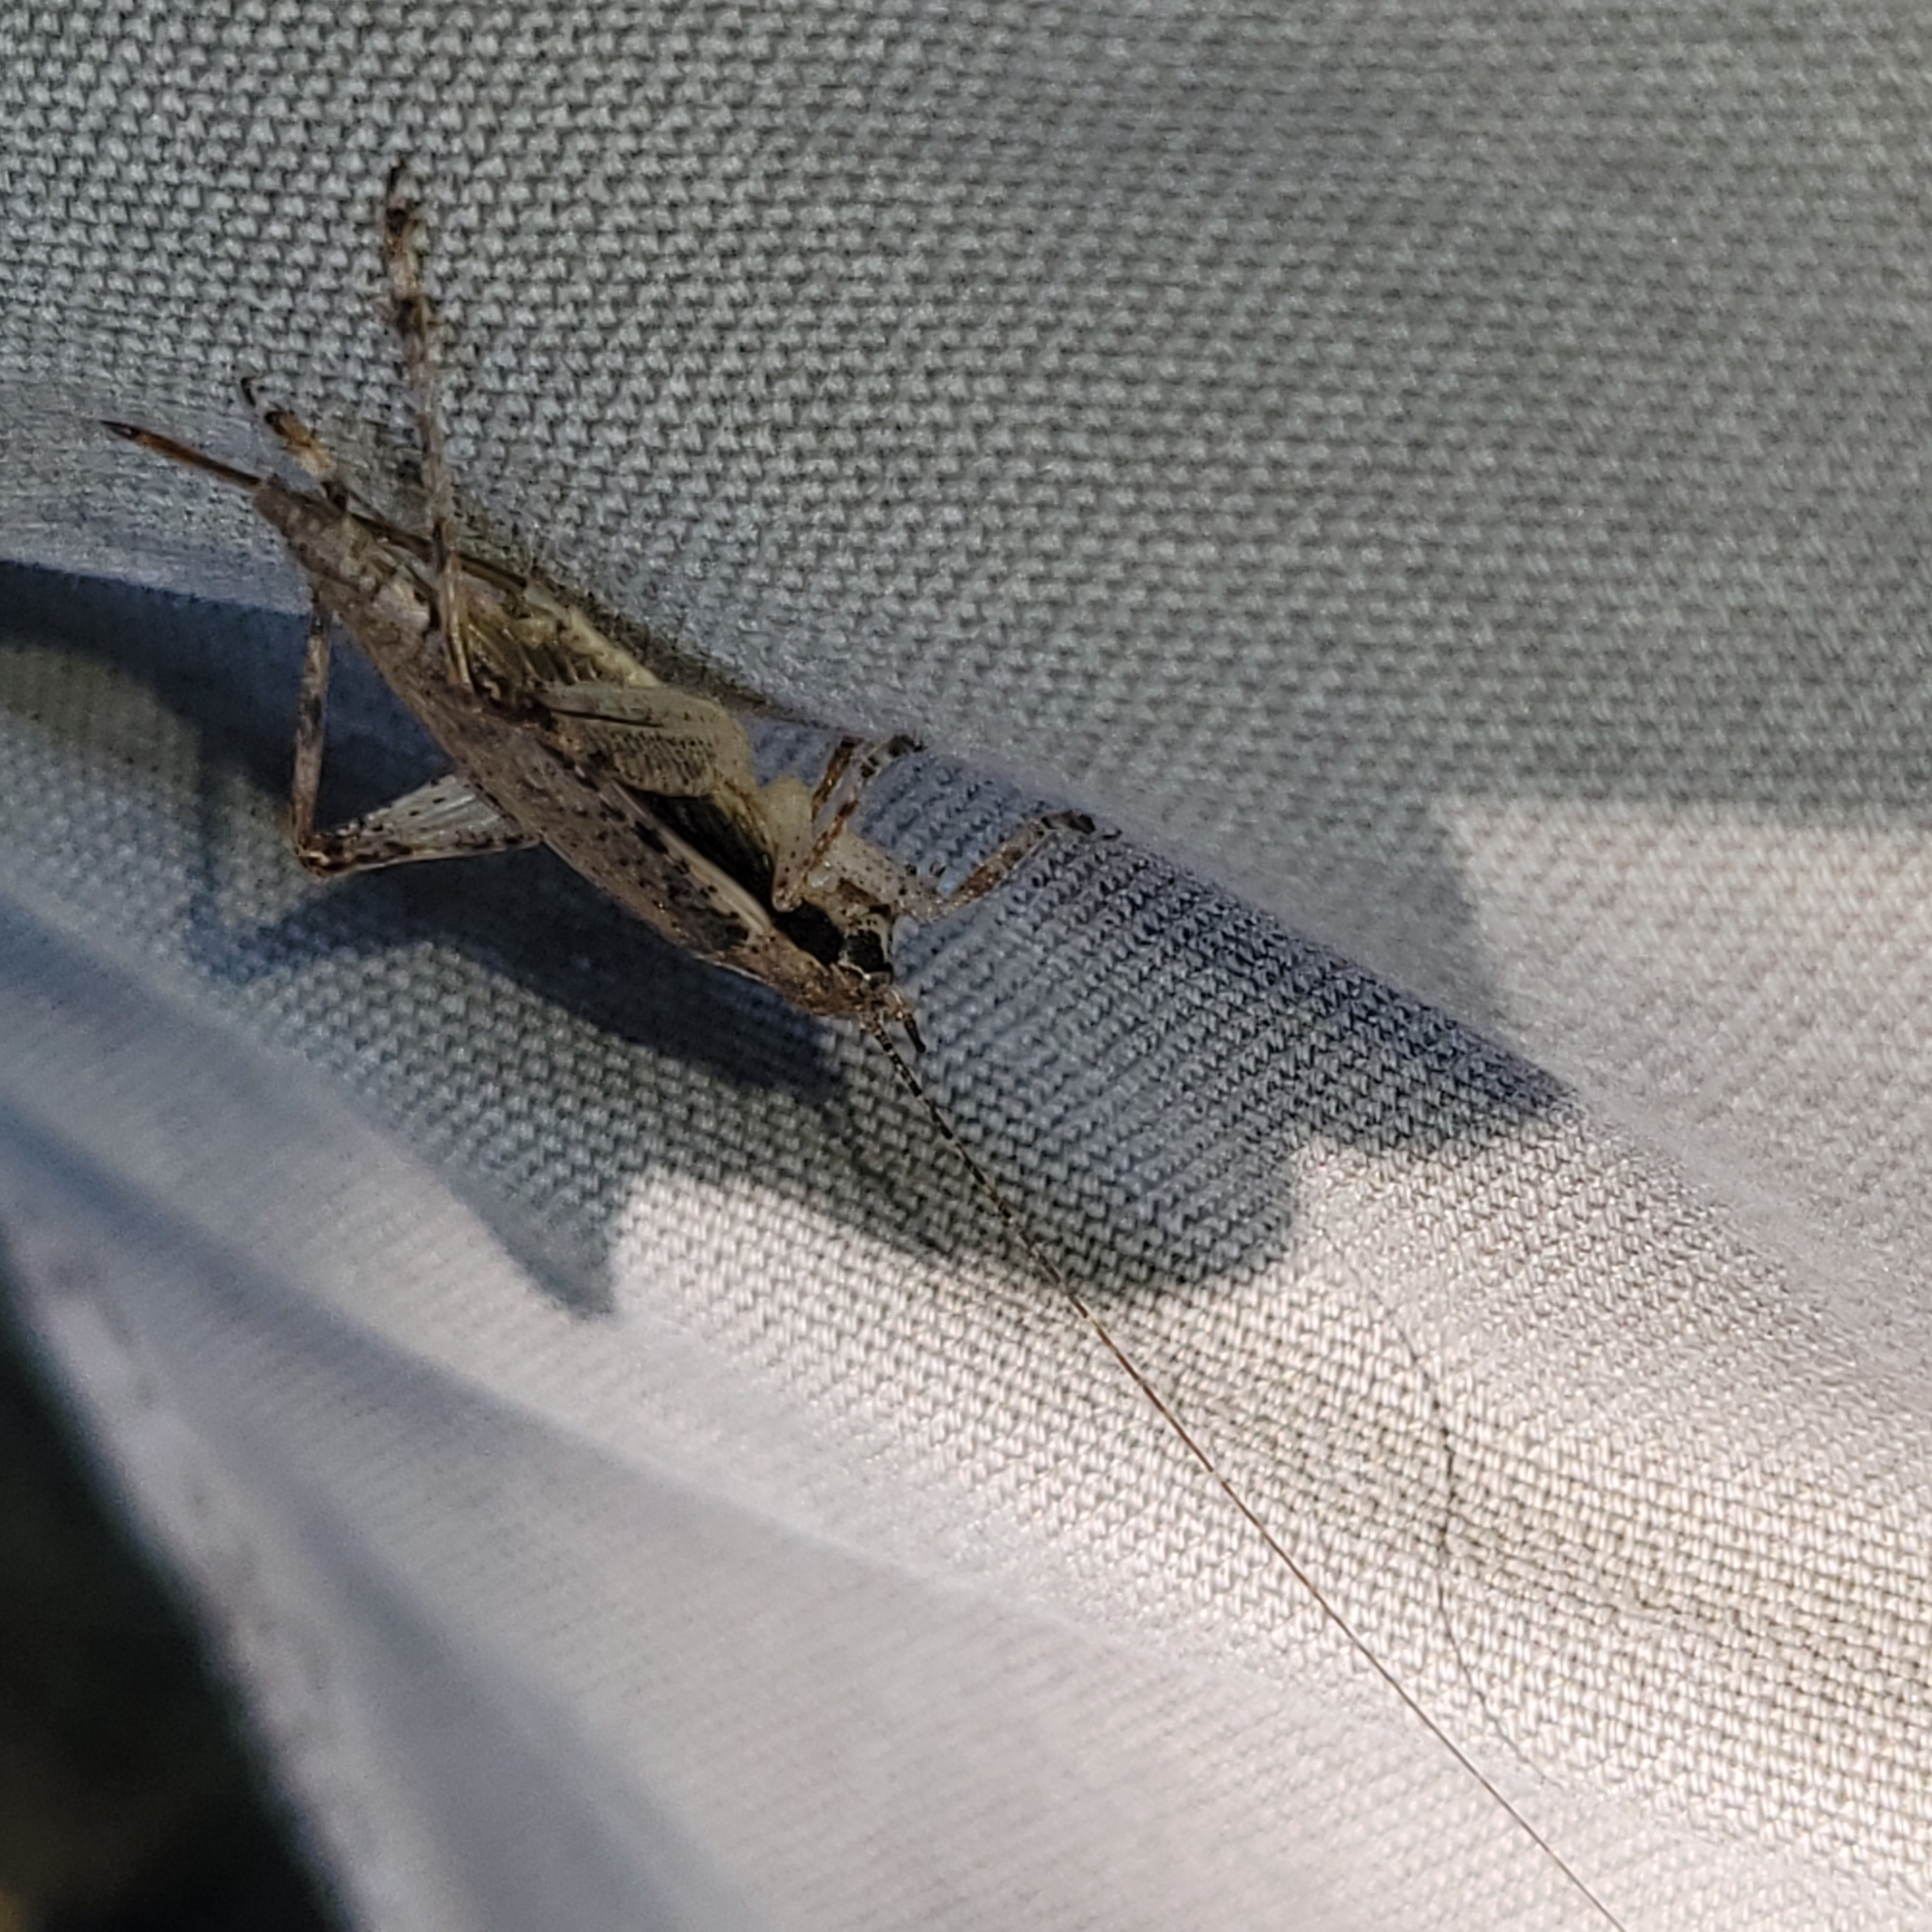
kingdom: Animalia
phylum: Arthropoda
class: Insecta
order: Orthoptera
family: Gryllidae
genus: Hapithus
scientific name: Hapithus saltator
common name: Jumping bush cricket
